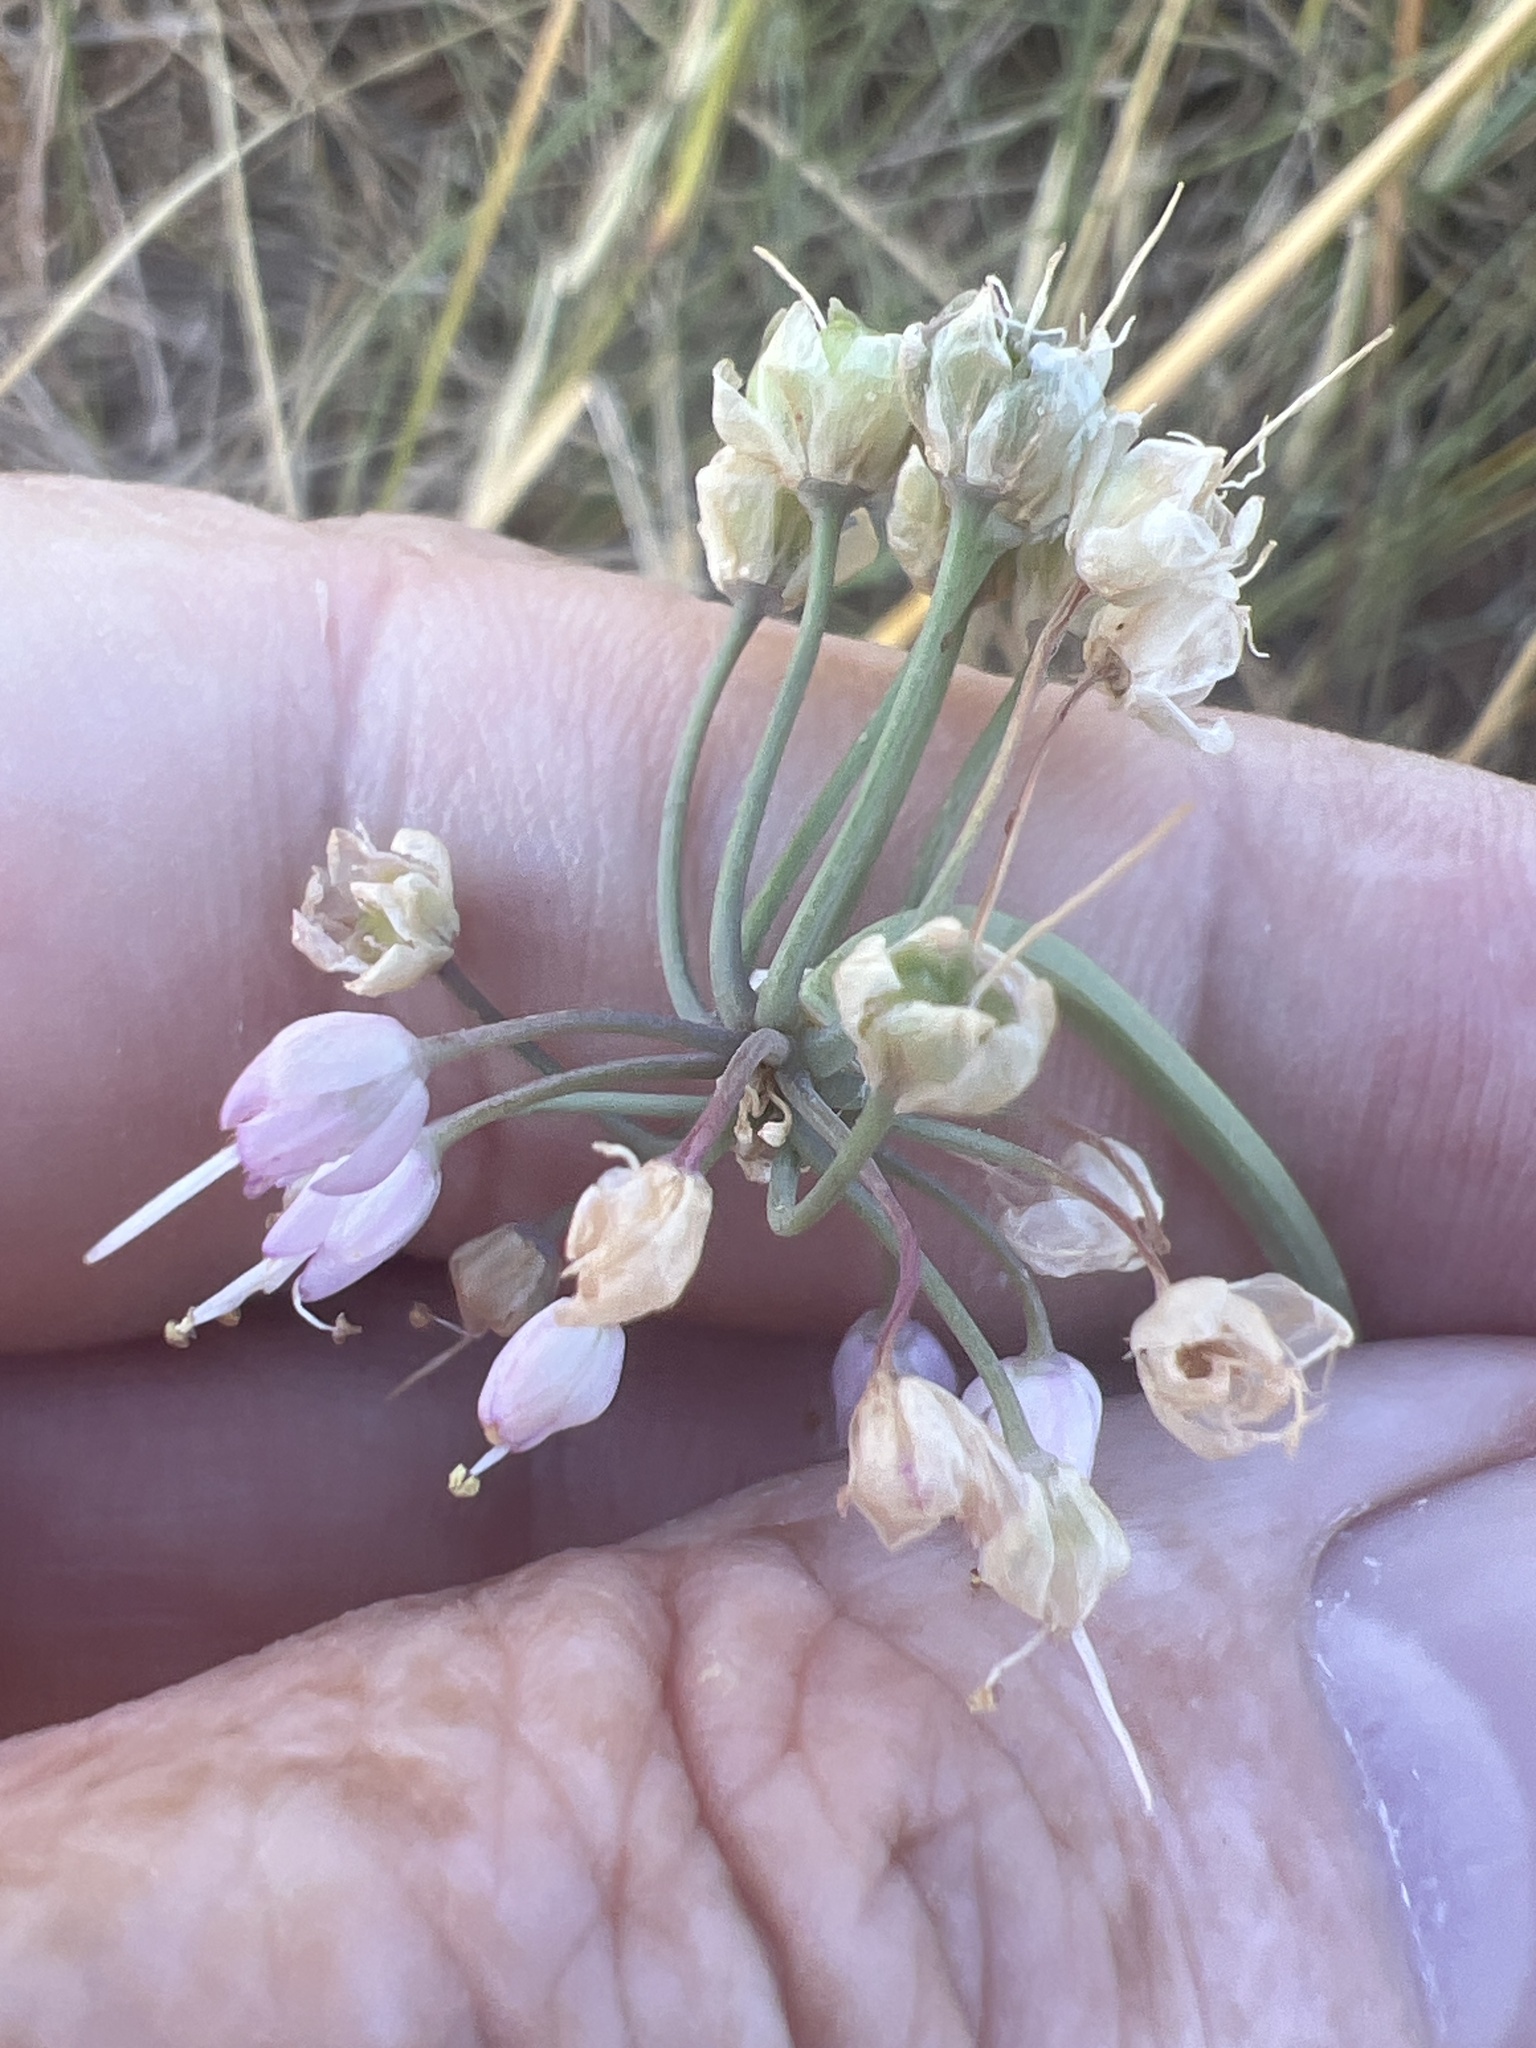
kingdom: Plantae
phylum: Tracheophyta
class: Liliopsida
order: Asparagales
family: Amaryllidaceae
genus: Allium
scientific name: Allium cernuum
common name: Nodding onion
